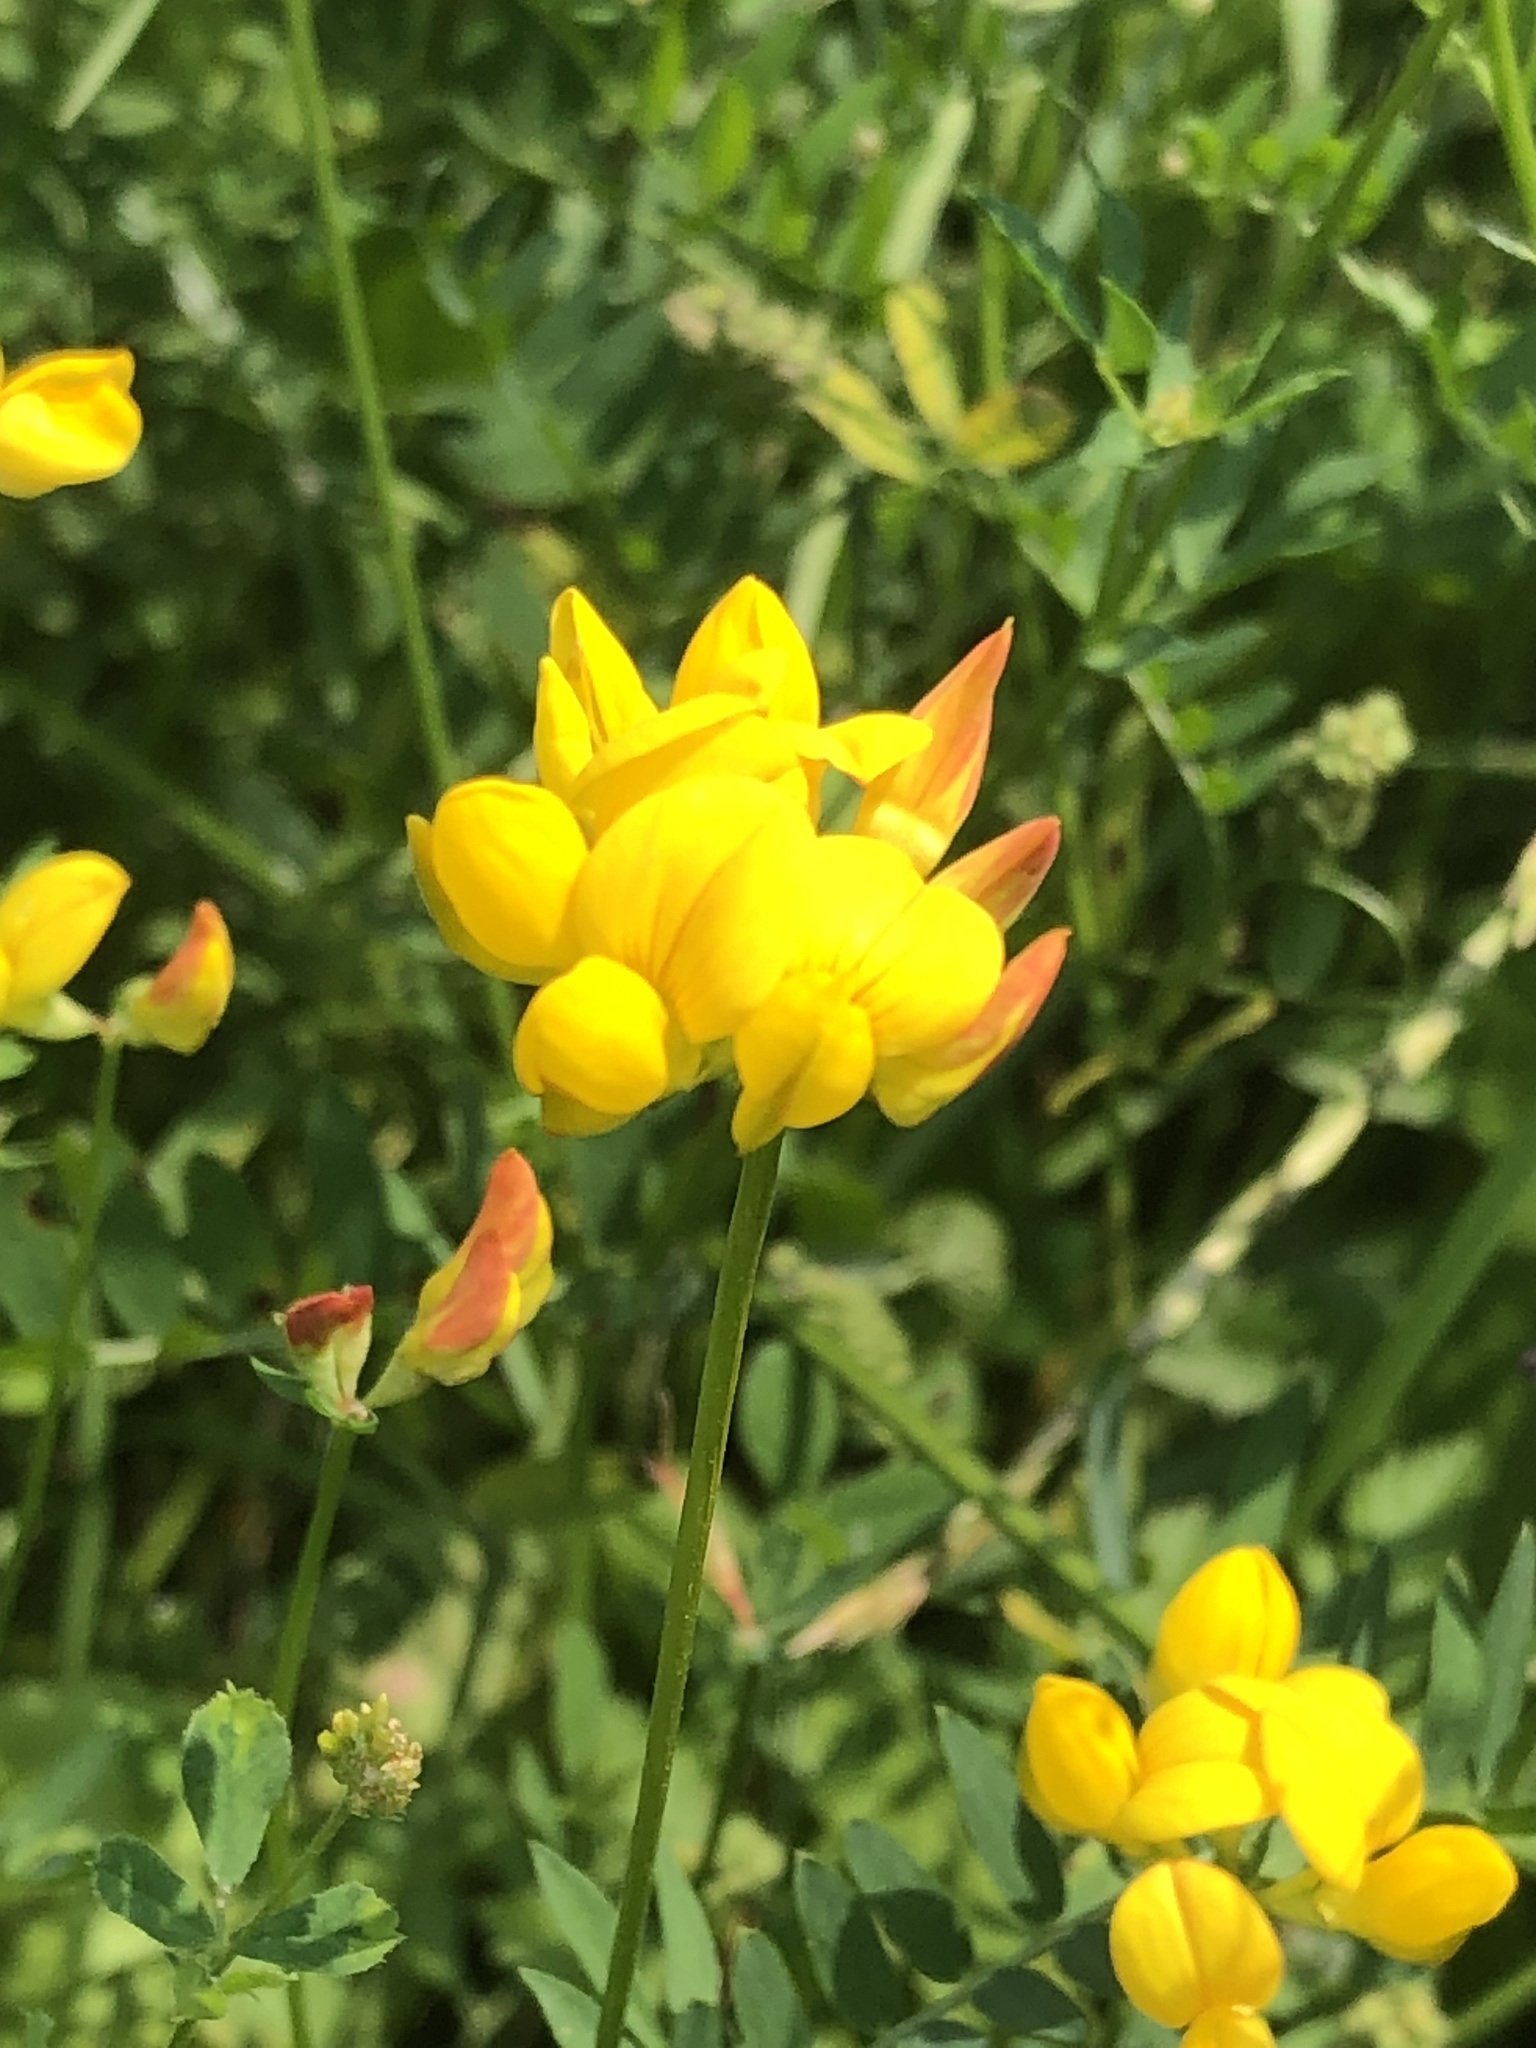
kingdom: Plantae
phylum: Tracheophyta
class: Magnoliopsida
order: Fabales
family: Fabaceae
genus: Lotus
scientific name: Lotus corniculatus
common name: Common bird's-foot-trefoil
